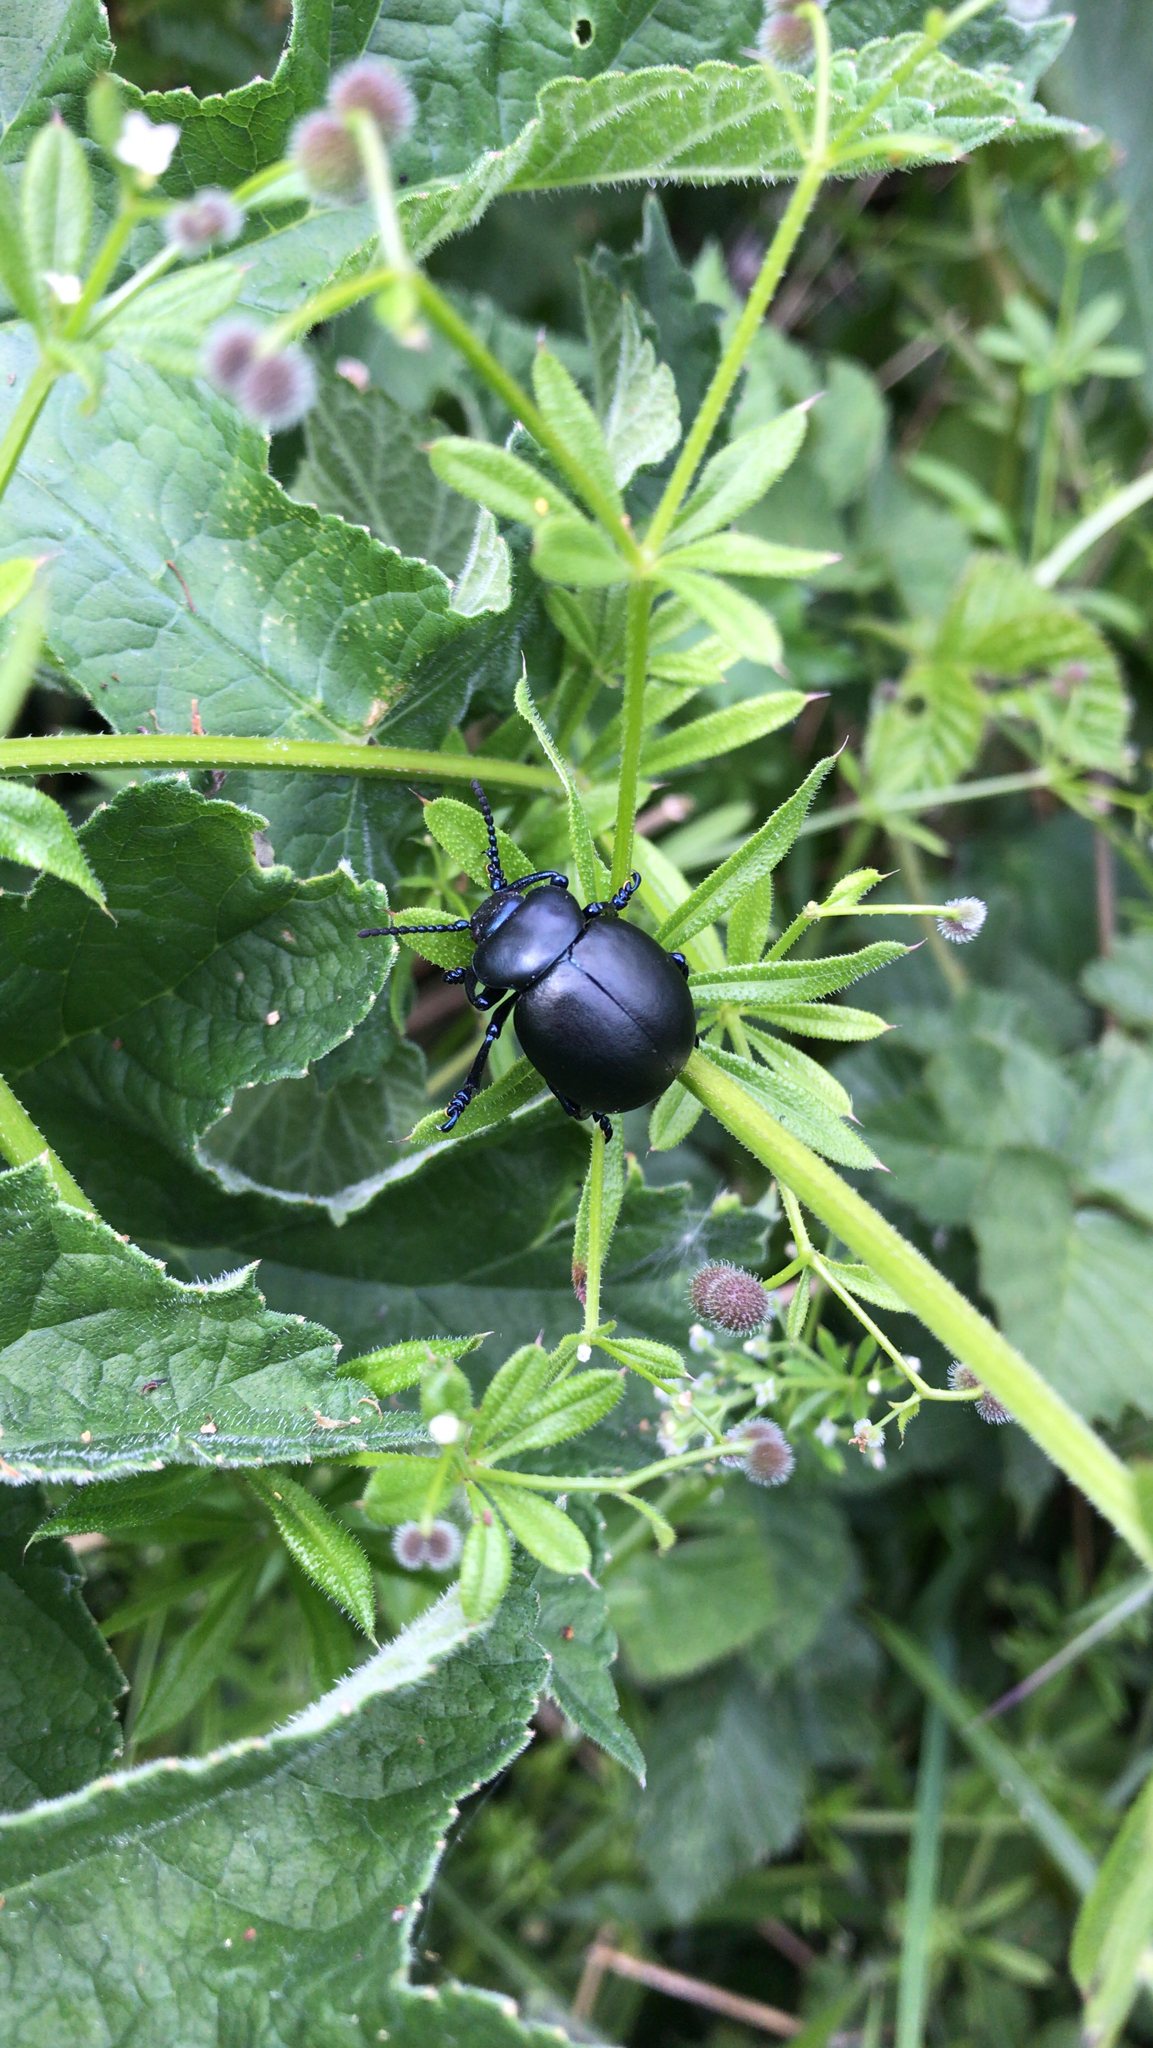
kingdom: Animalia
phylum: Arthropoda
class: Insecta
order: Coleoptera
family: Chrysomelidae
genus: Timarcha
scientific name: Timarcha tenebricosa
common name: Bloody-nosed beetle
